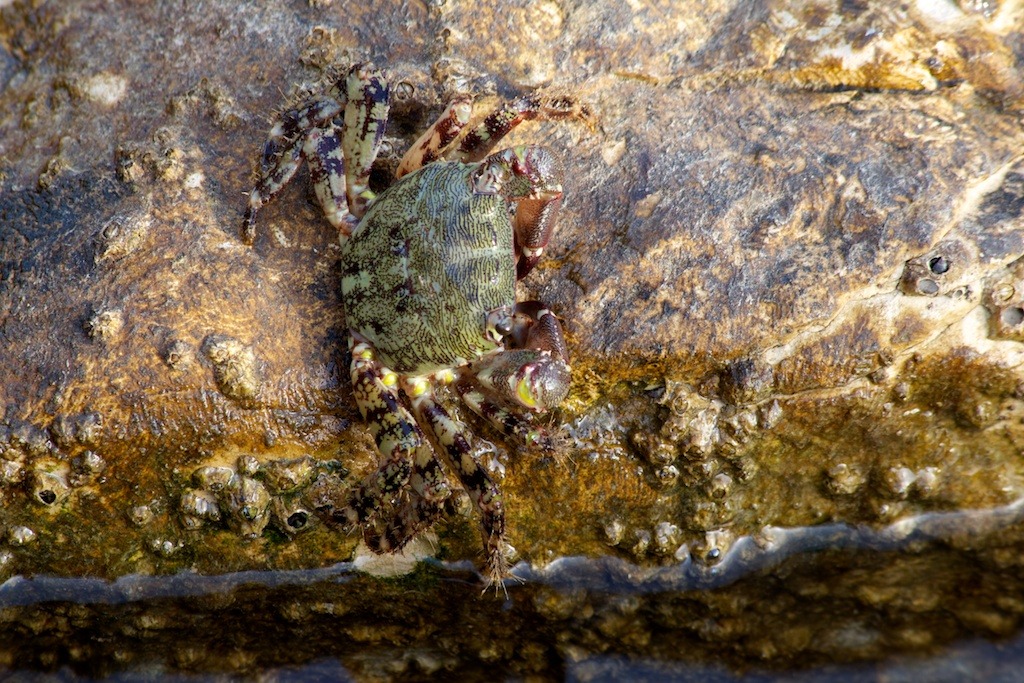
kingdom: Animalia
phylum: Arthropoda
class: Malacostraca
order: Decapoda
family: Grapsidae
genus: Pachygrapsus
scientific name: Pachygrapsus marmoratus
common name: Marbled rock crab
